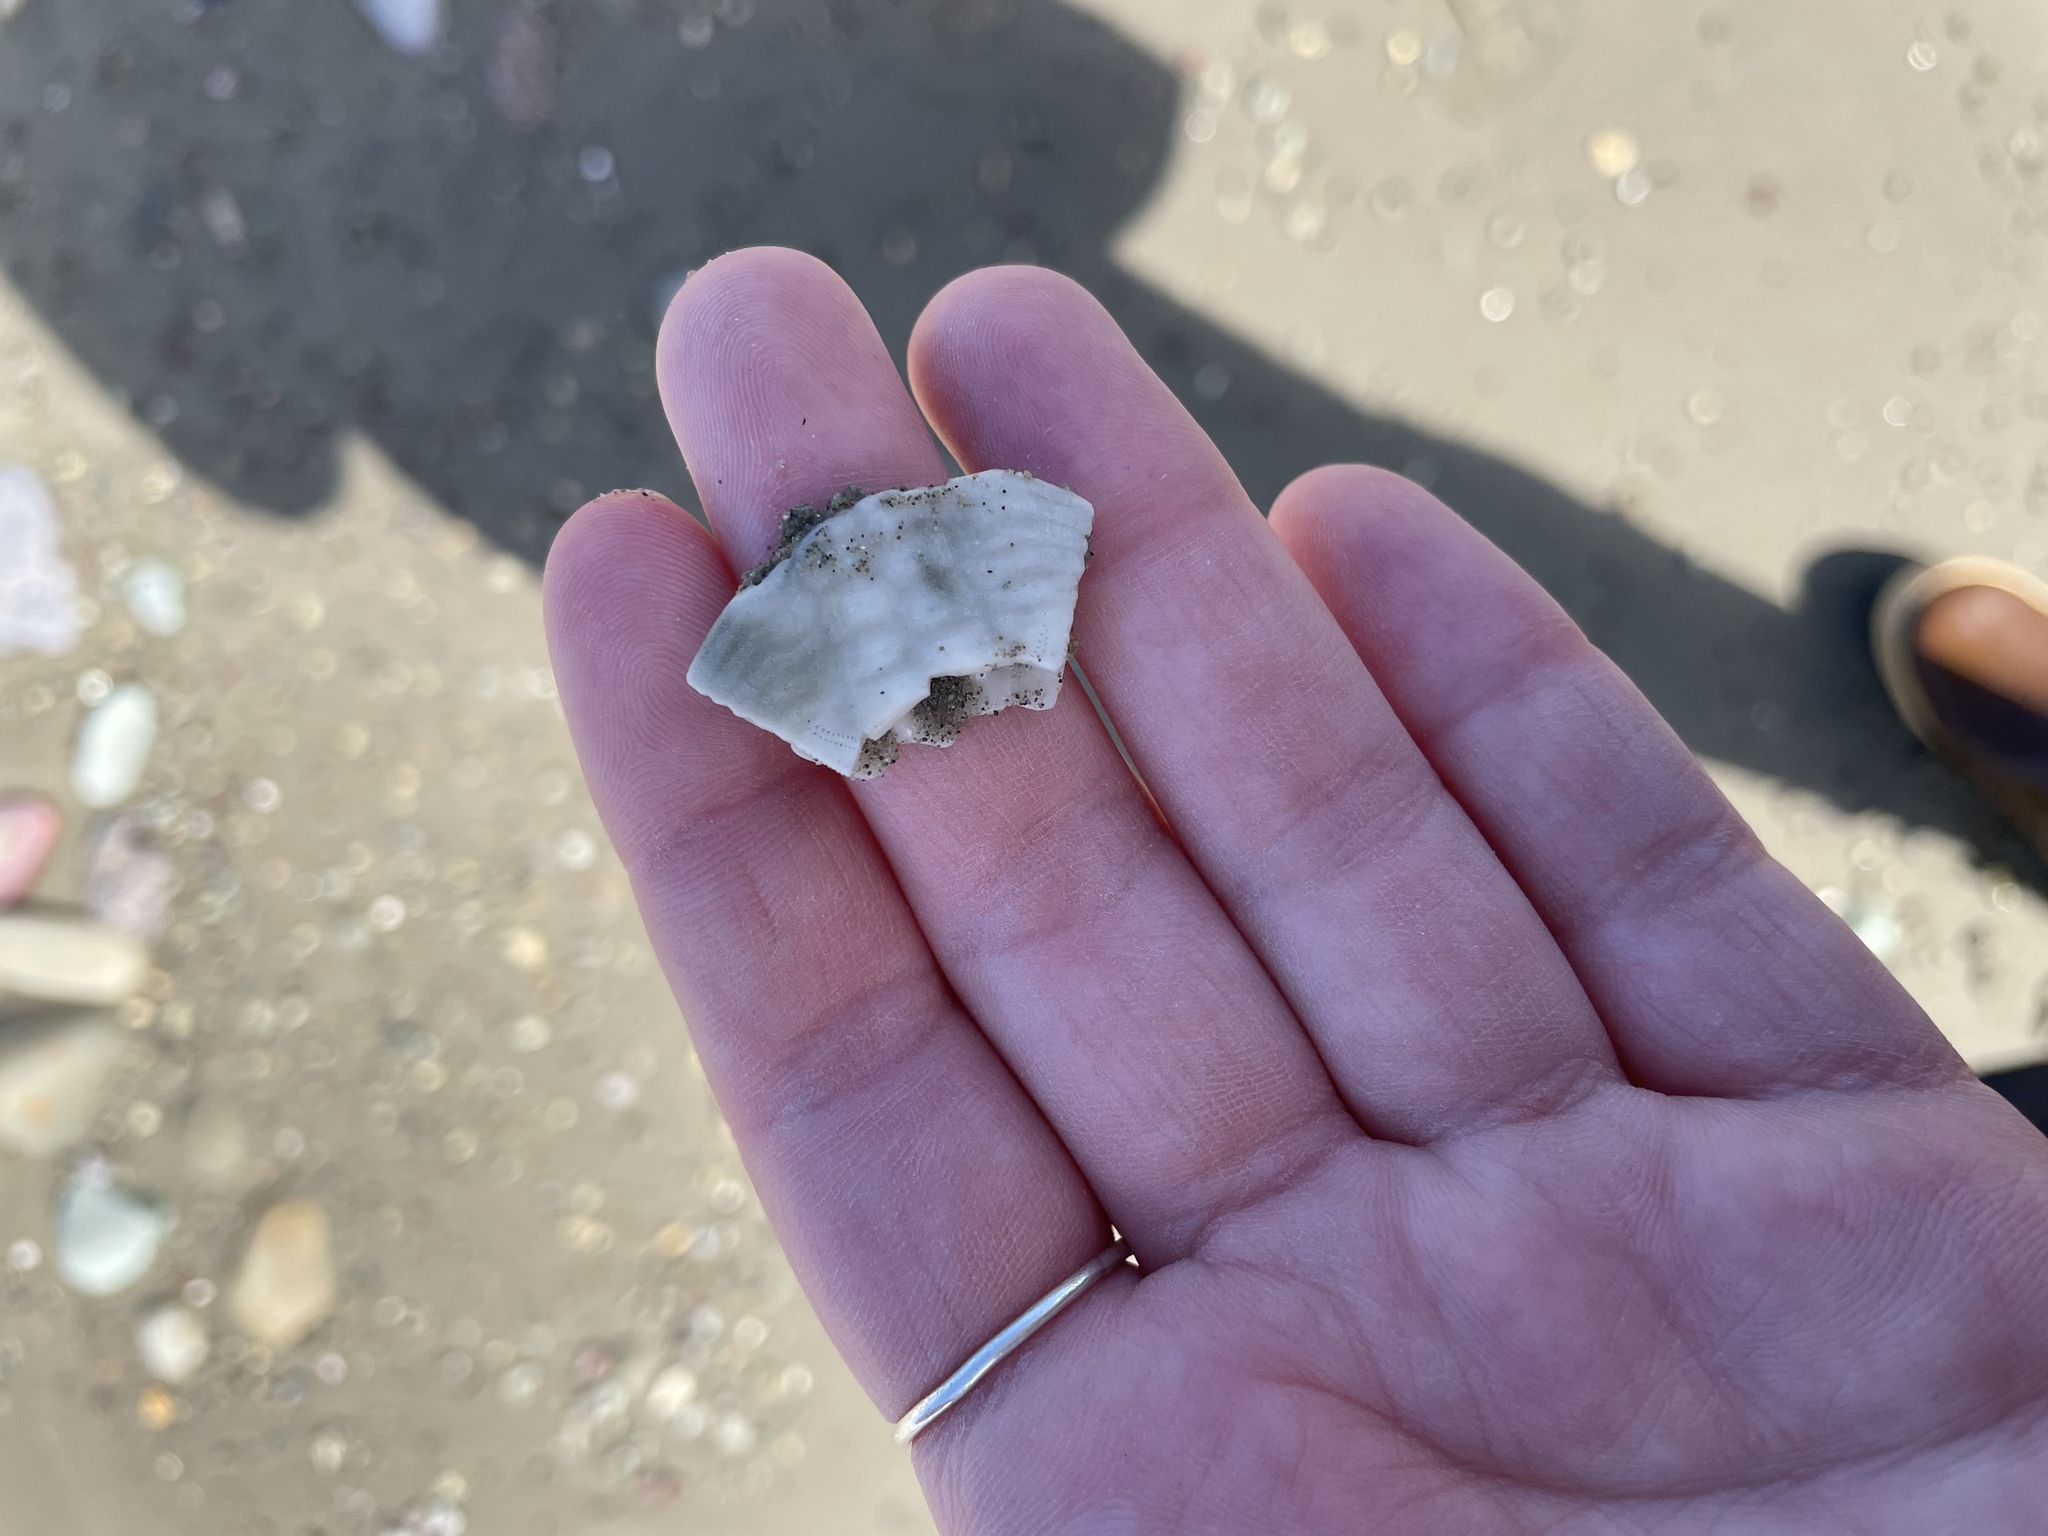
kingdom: Animalia
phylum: Echinodermata
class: Echinoidea
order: Echinolampadacea
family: Echinarachniidae
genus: Echinarachnius
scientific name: Echinarachnius parma
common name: Common sand dollar
